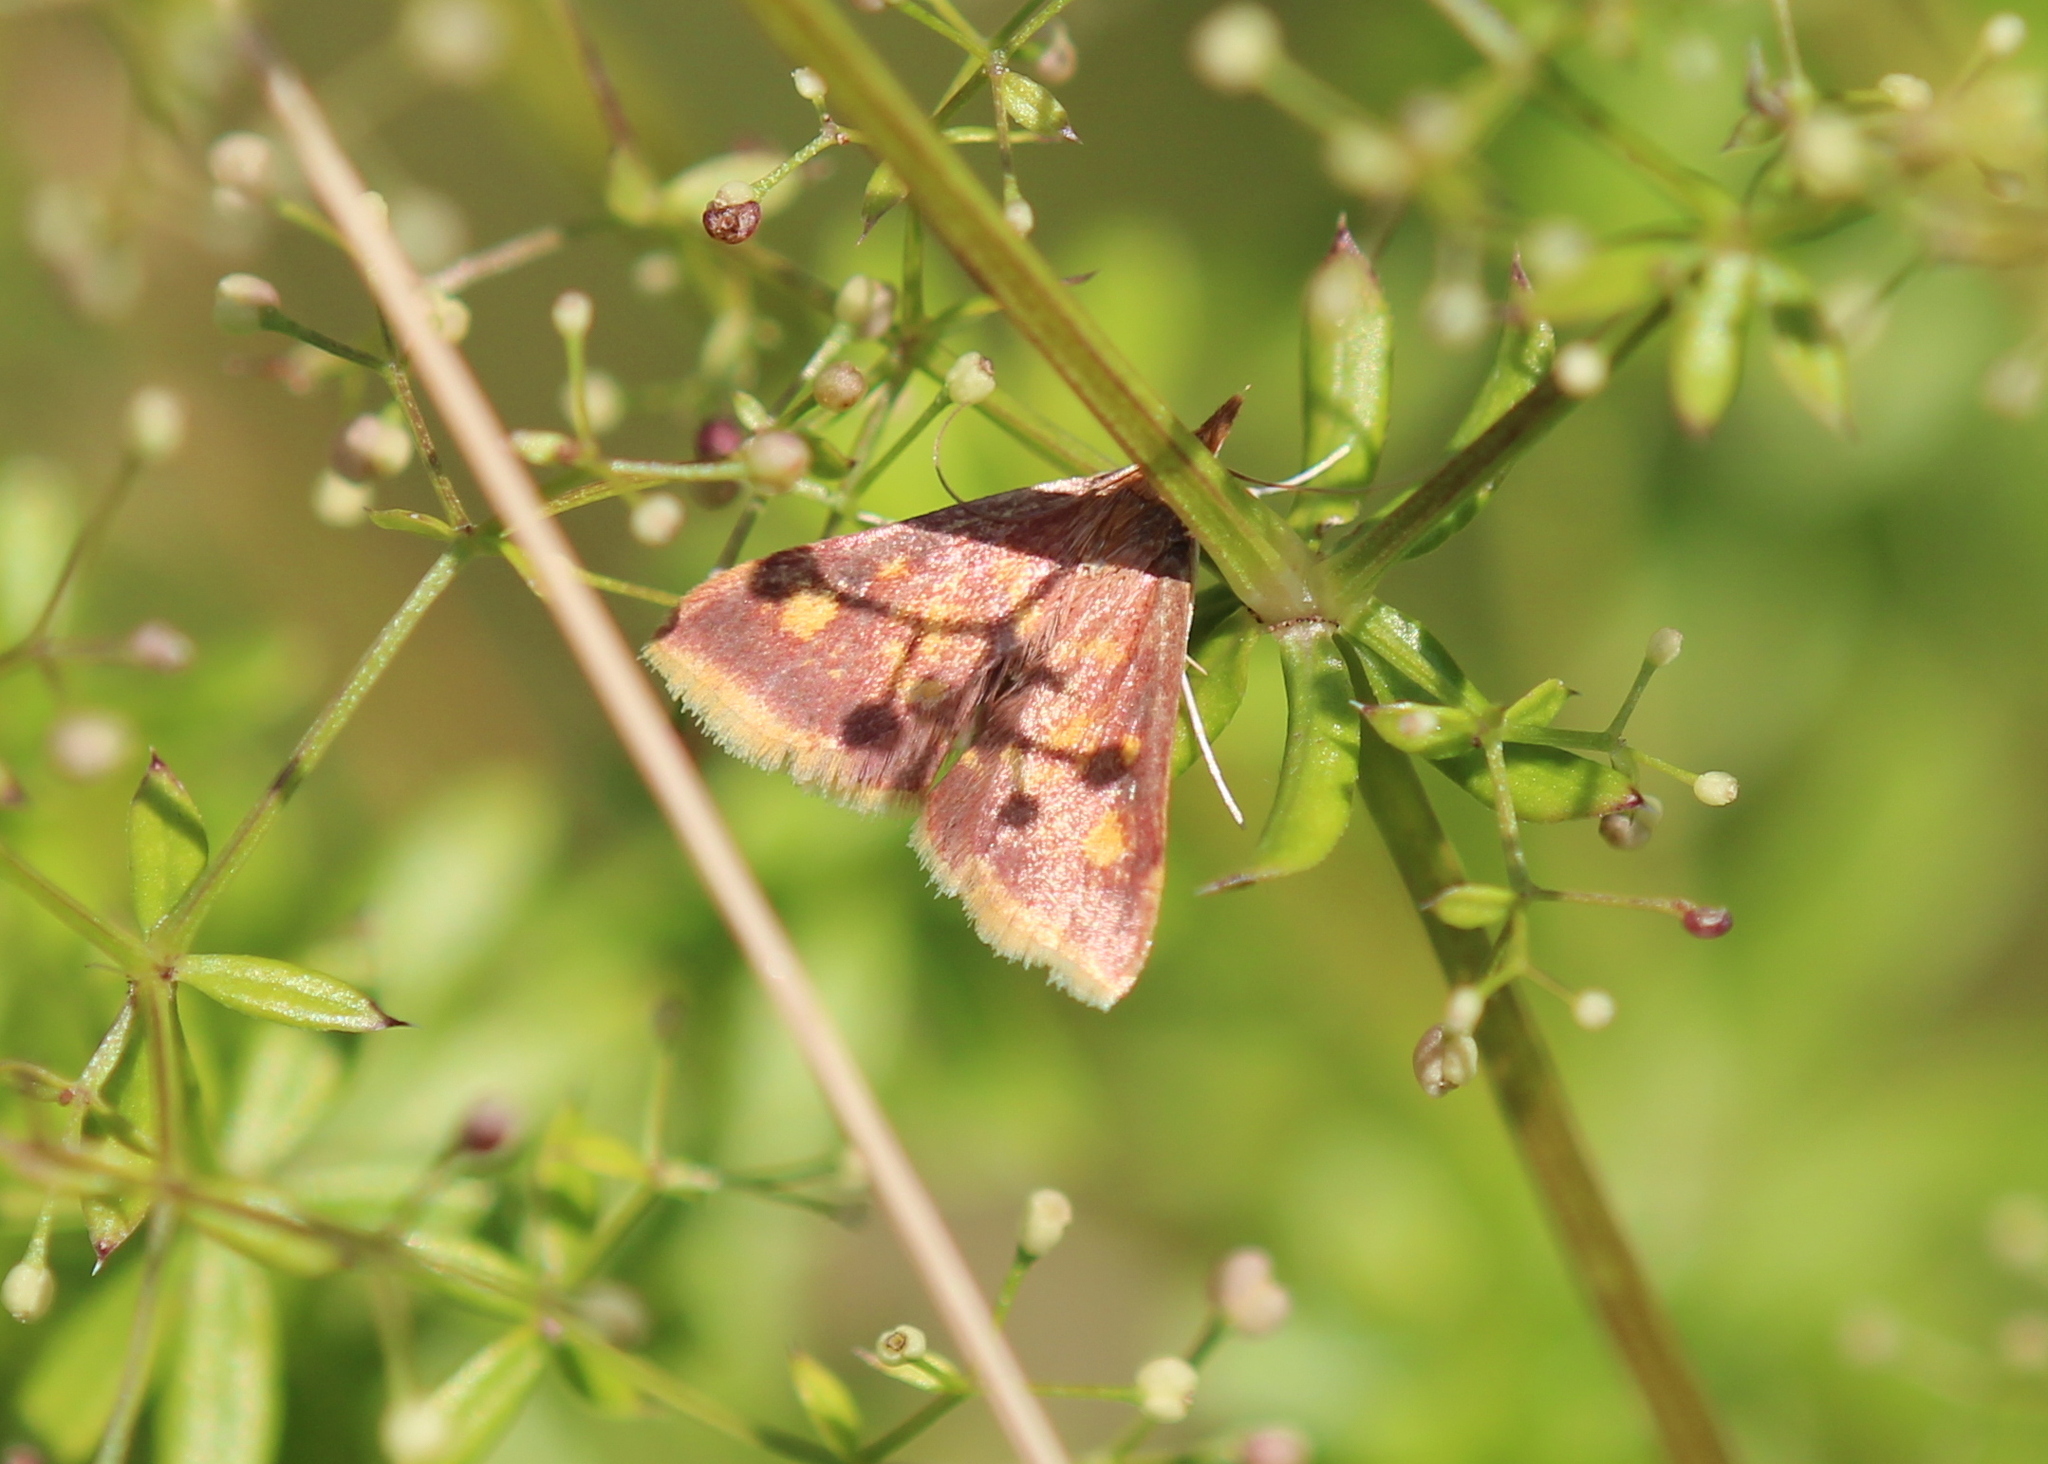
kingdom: Animalia
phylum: Arthropoda
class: Insecta
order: Lepidoptera
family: Crambidae
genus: Pyrausta
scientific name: Pyrausta acrionalis
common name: Mint-loving pyrausta moth
